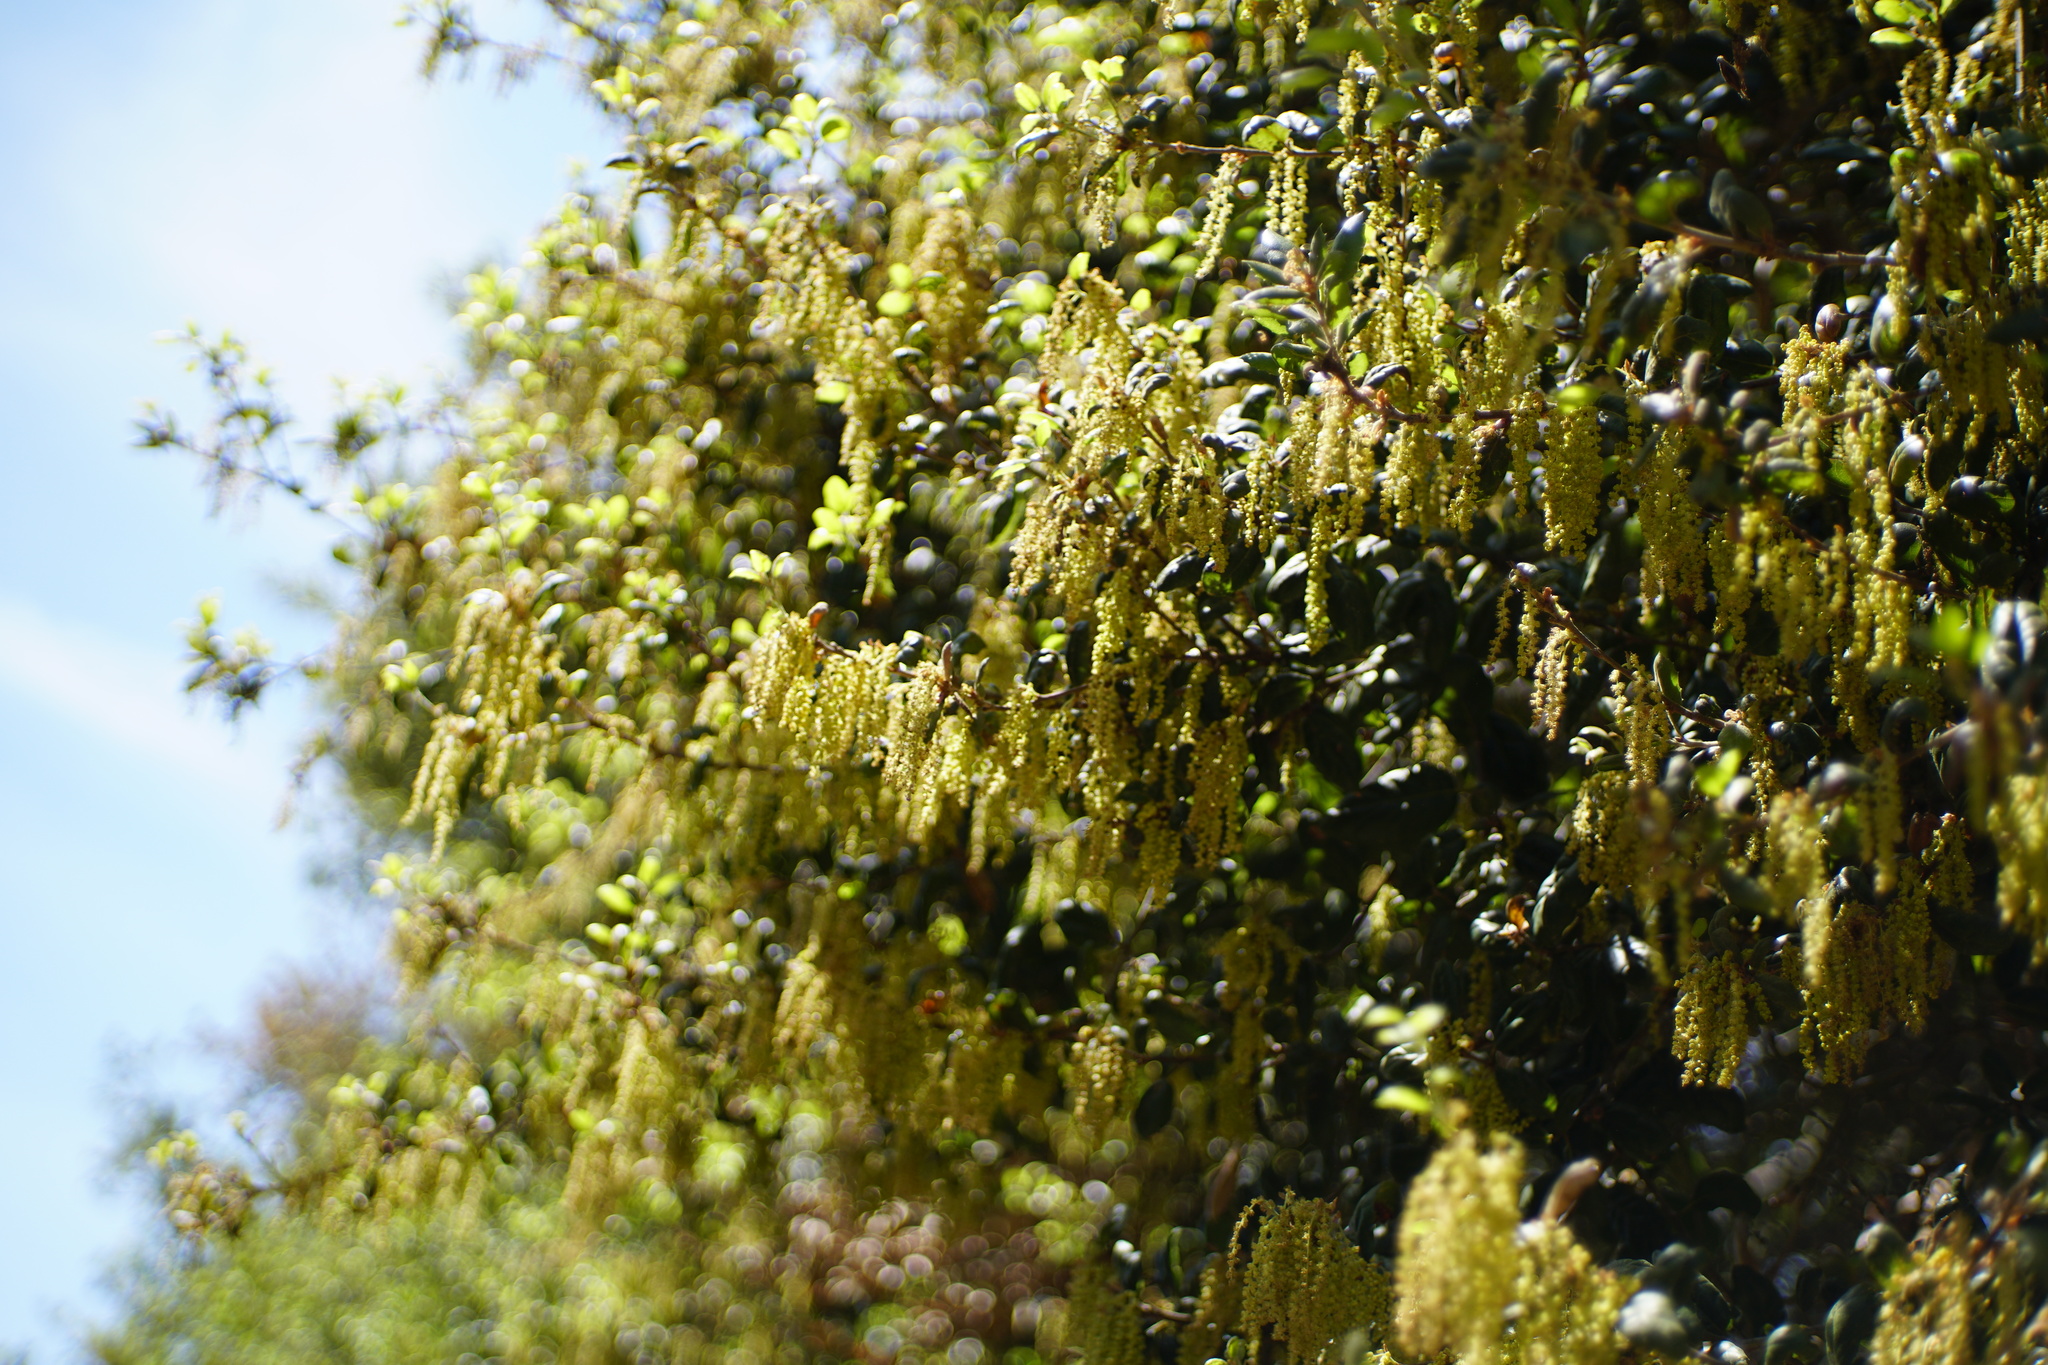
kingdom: Plantae
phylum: Tracheophyta
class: Magnoliopsida
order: Fagales
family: Fagaceae
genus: Quercus
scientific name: Quercus agrifolia
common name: California live oak
